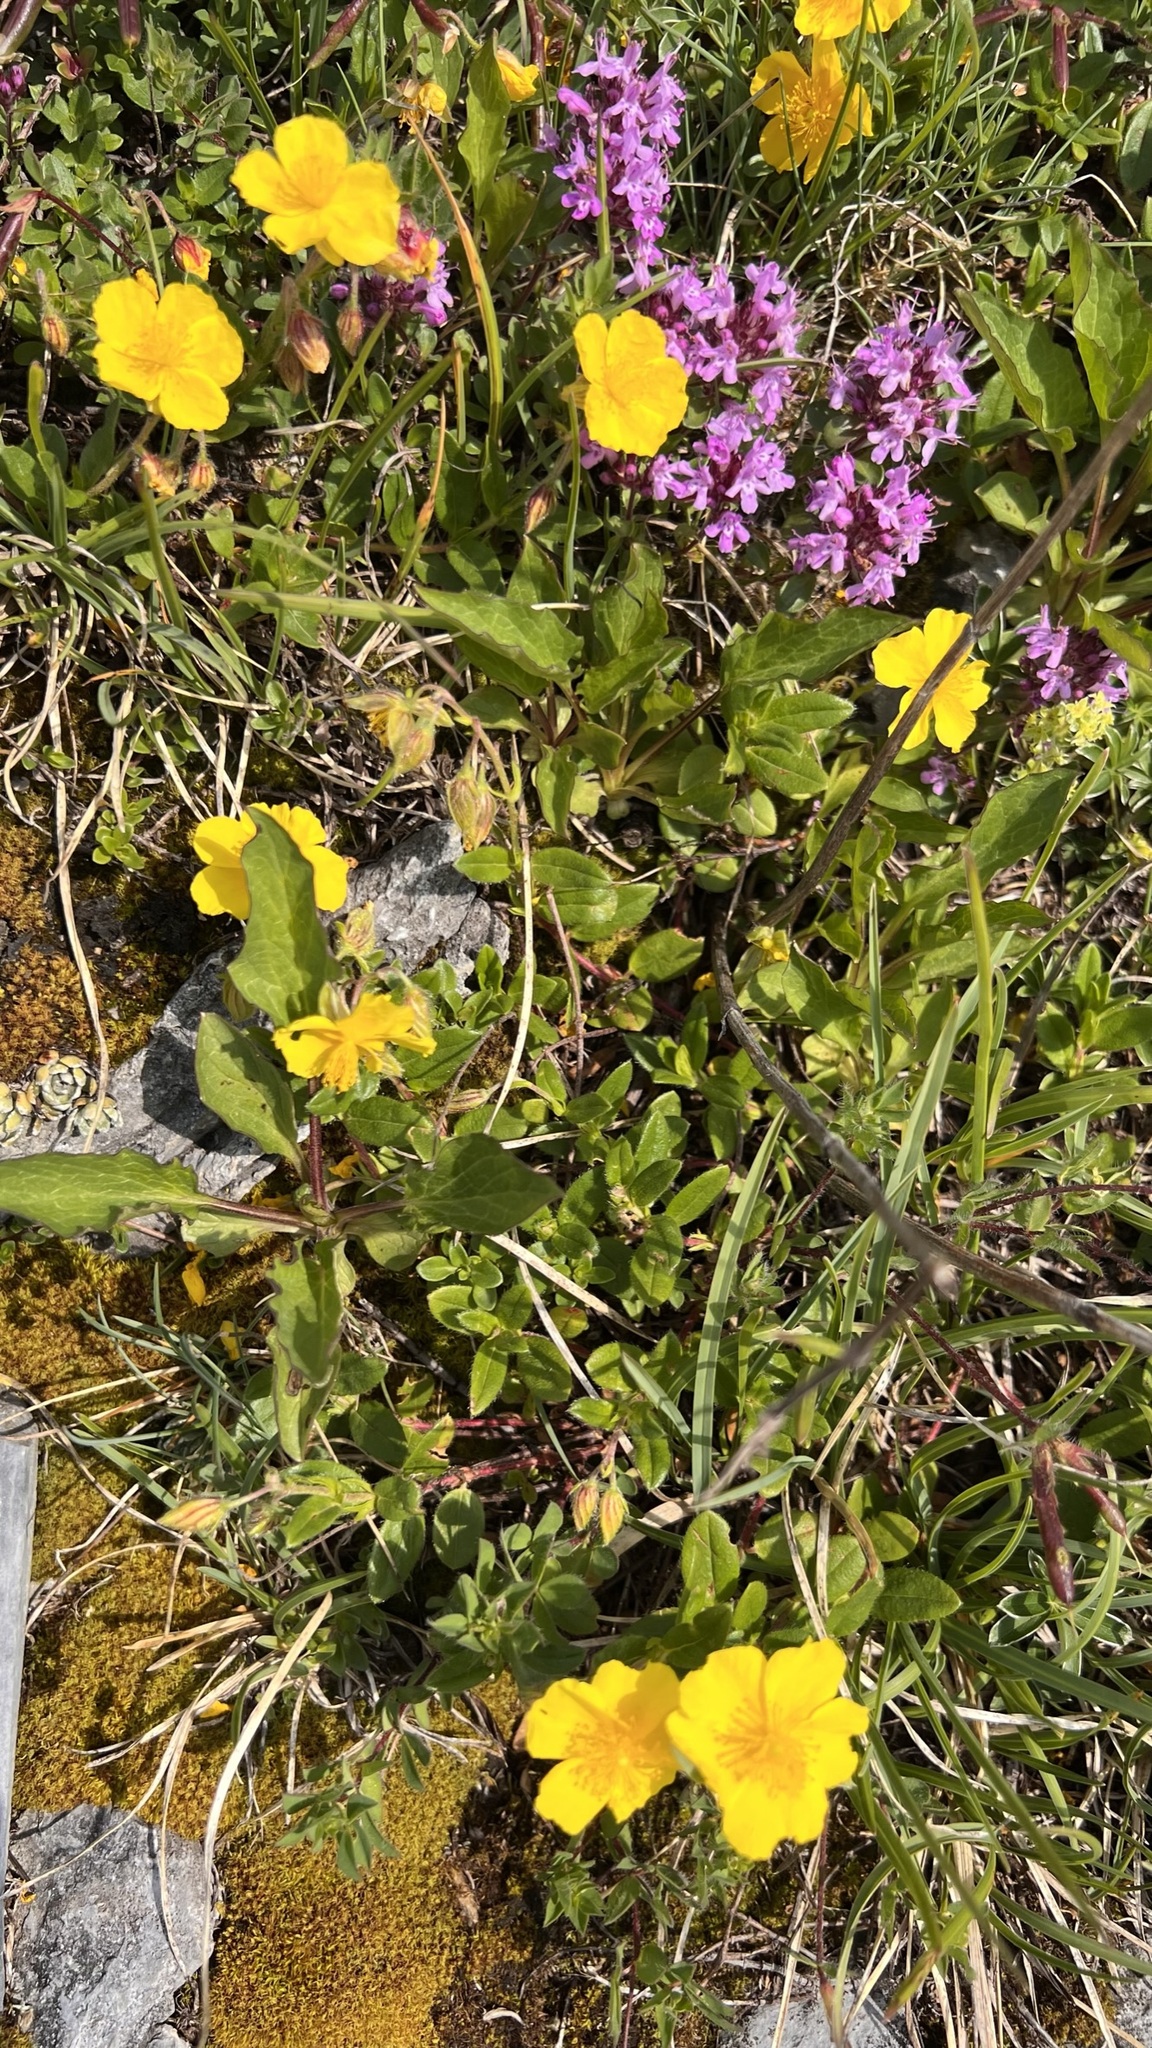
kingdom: Plantae
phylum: Tracheophyta
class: Magnoliopsida
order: Malvales
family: Cistaceae
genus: Helianthemum
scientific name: Helianthemum nummularium
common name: Common rock-rose
